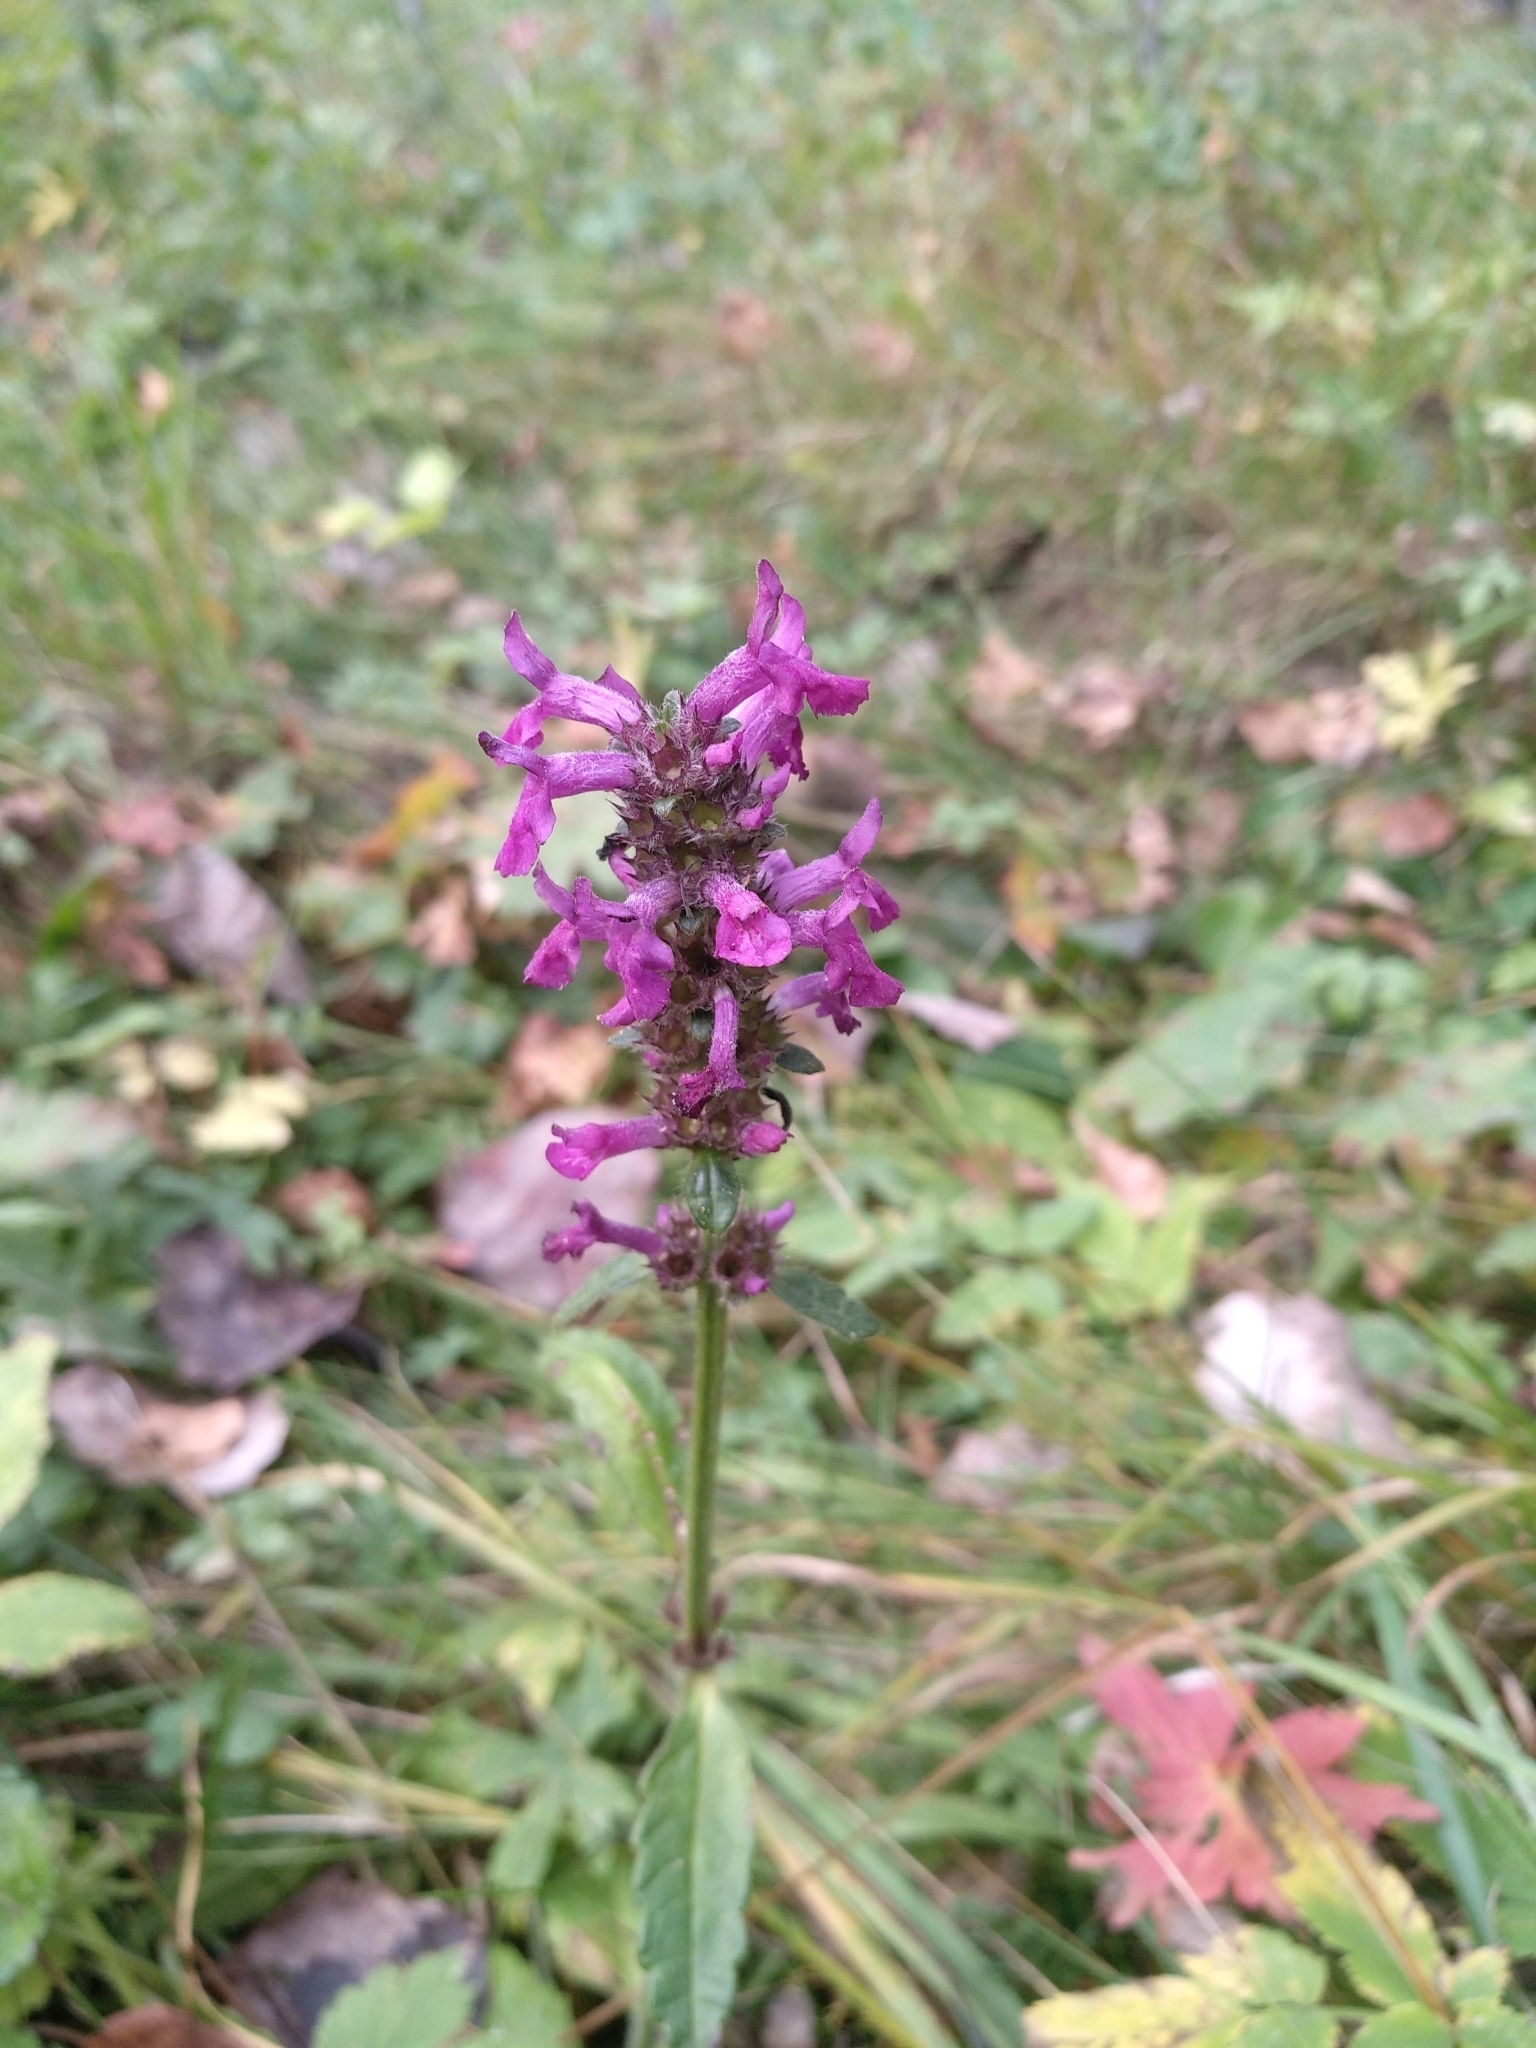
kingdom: Plantae
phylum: Tracheophyta
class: Magnoliopsida
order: Lamiales
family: Lamiaceae
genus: Betonica
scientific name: Betonica officinalis
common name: Bishop's-wort
